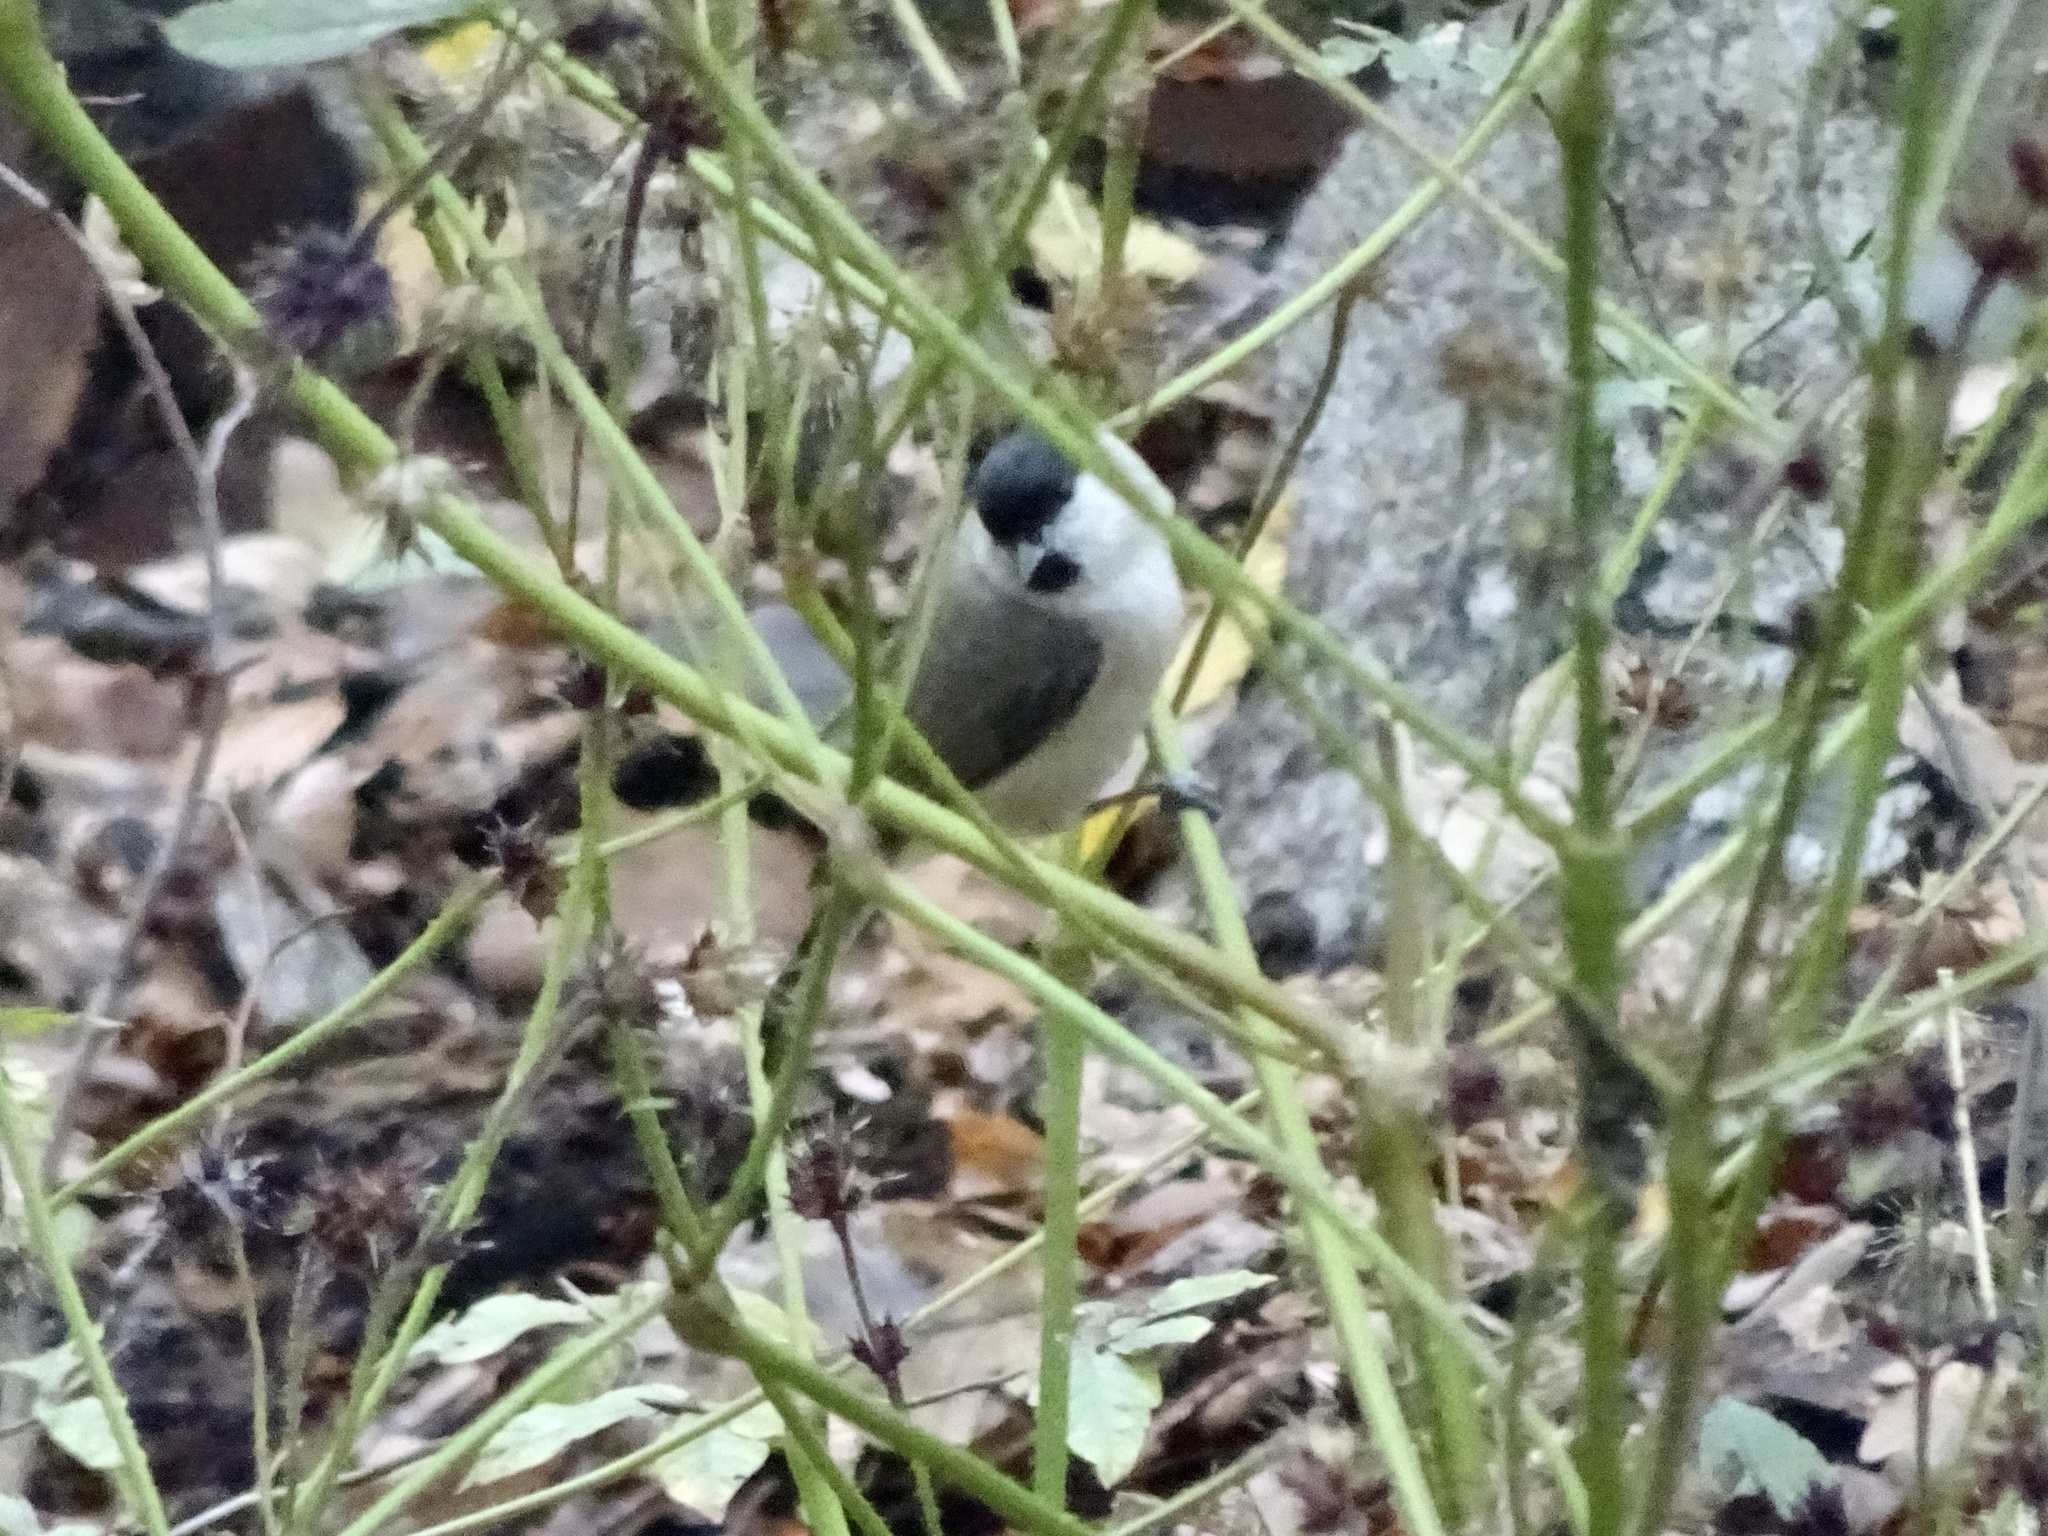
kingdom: Animalia
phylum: Chordata
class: Aves
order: Passeriformes
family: Paridae
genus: Poecile
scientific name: Poecile palustris
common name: Marsh tit
